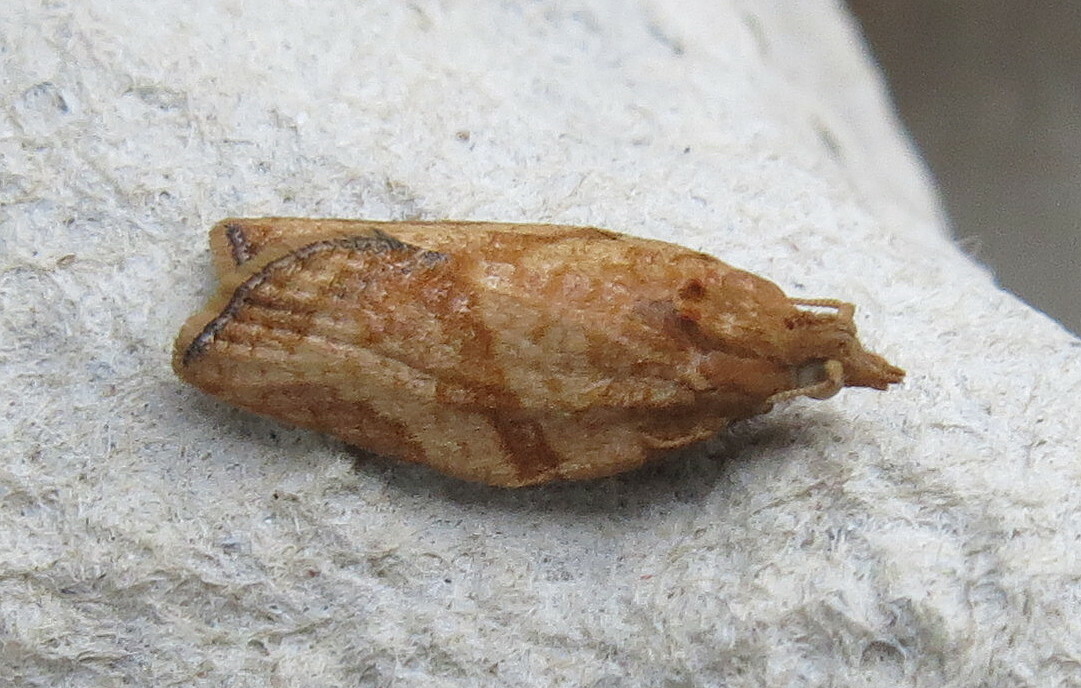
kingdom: Animalia
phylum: Arthropoda
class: Insecta
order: Lepidoptera
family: Tortricidae
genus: Epiphyas
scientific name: Epiphyas postvittana
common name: Light brown apple moth
